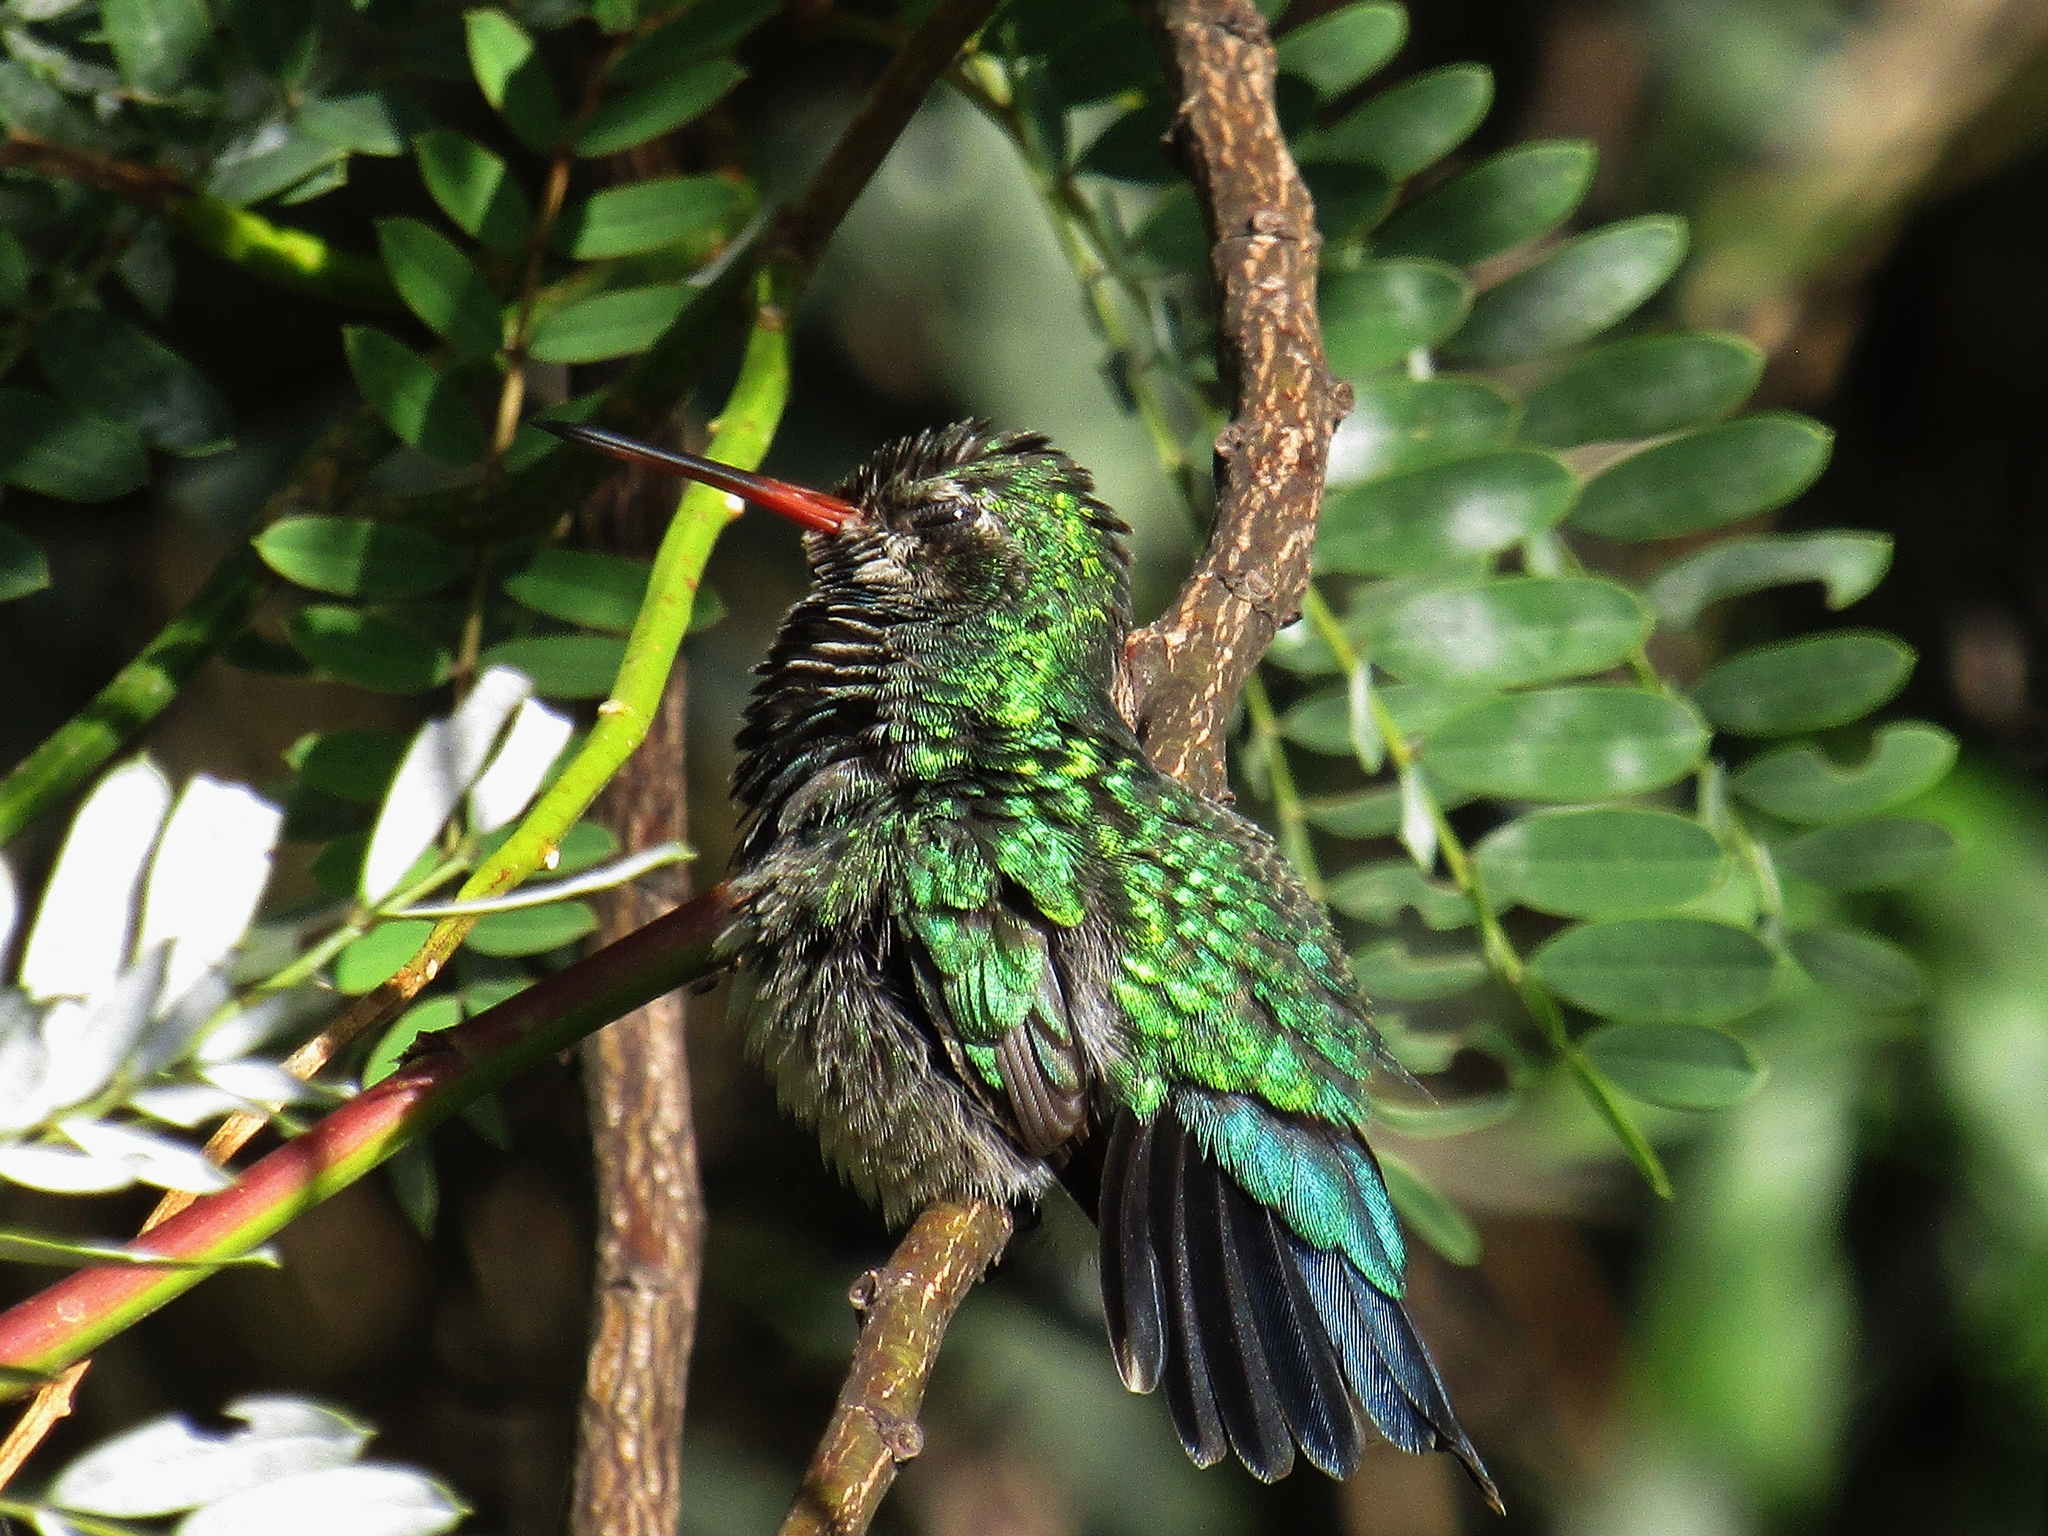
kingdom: Animalia
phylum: Chordata
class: Aves
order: Apodiformes
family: Trochilidae
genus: Chlorostilbon
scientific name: Chlorostilbon lucidus
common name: Glittering-bellied emerald
